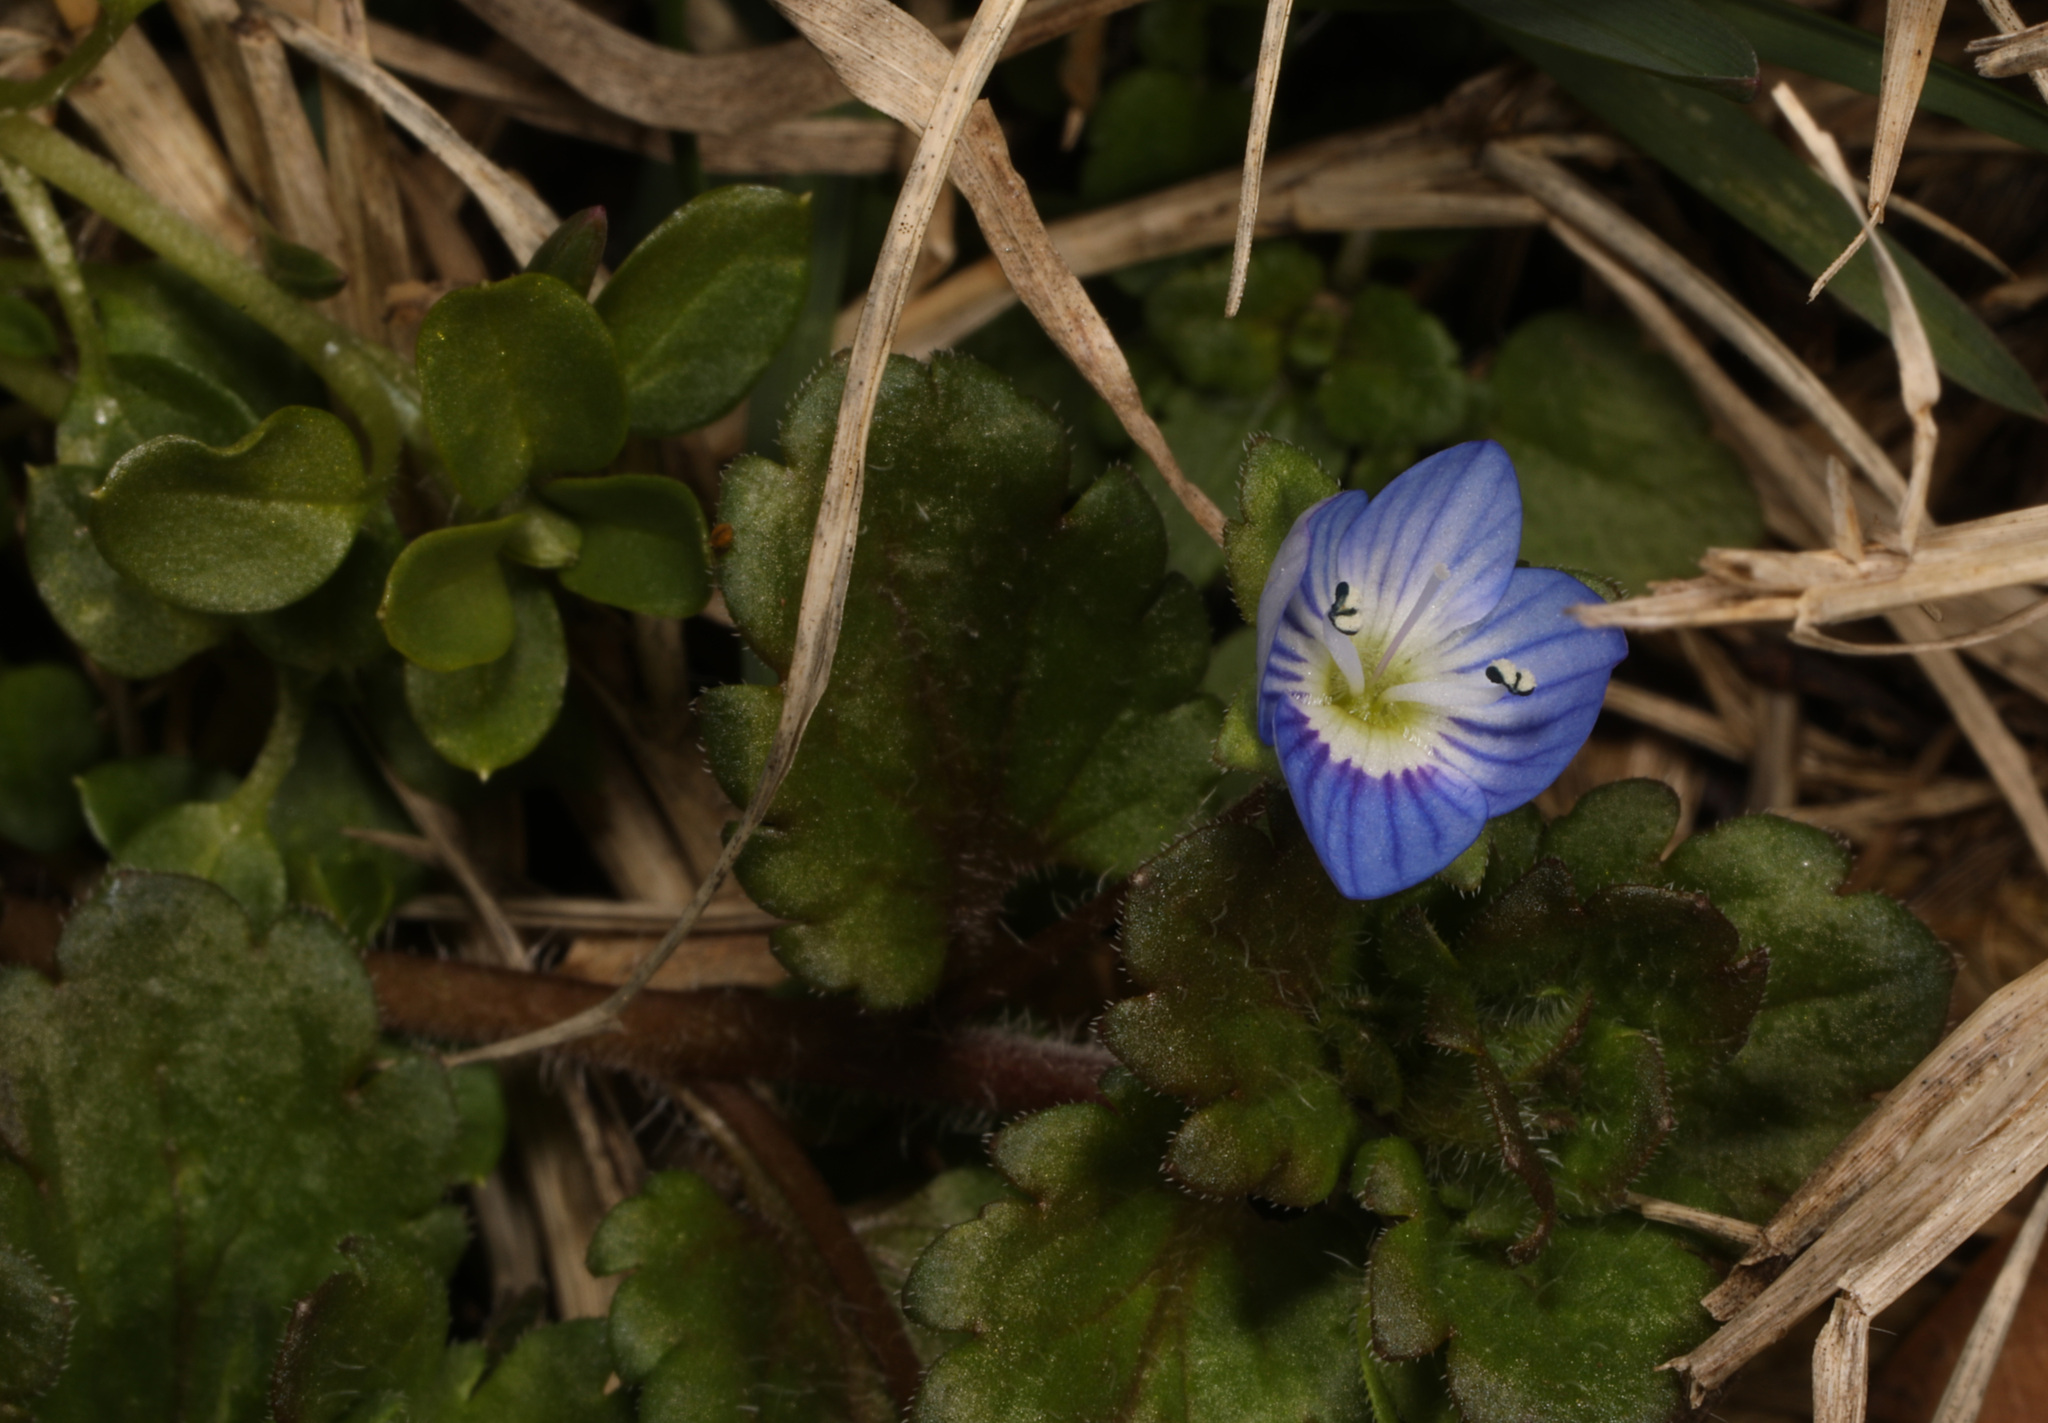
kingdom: Plantae
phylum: Tracheophyta
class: Magnoliopsida
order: Lamiales
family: Plantaginaceae
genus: Veronica
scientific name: Veronica persica
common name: Common field-speedwell
